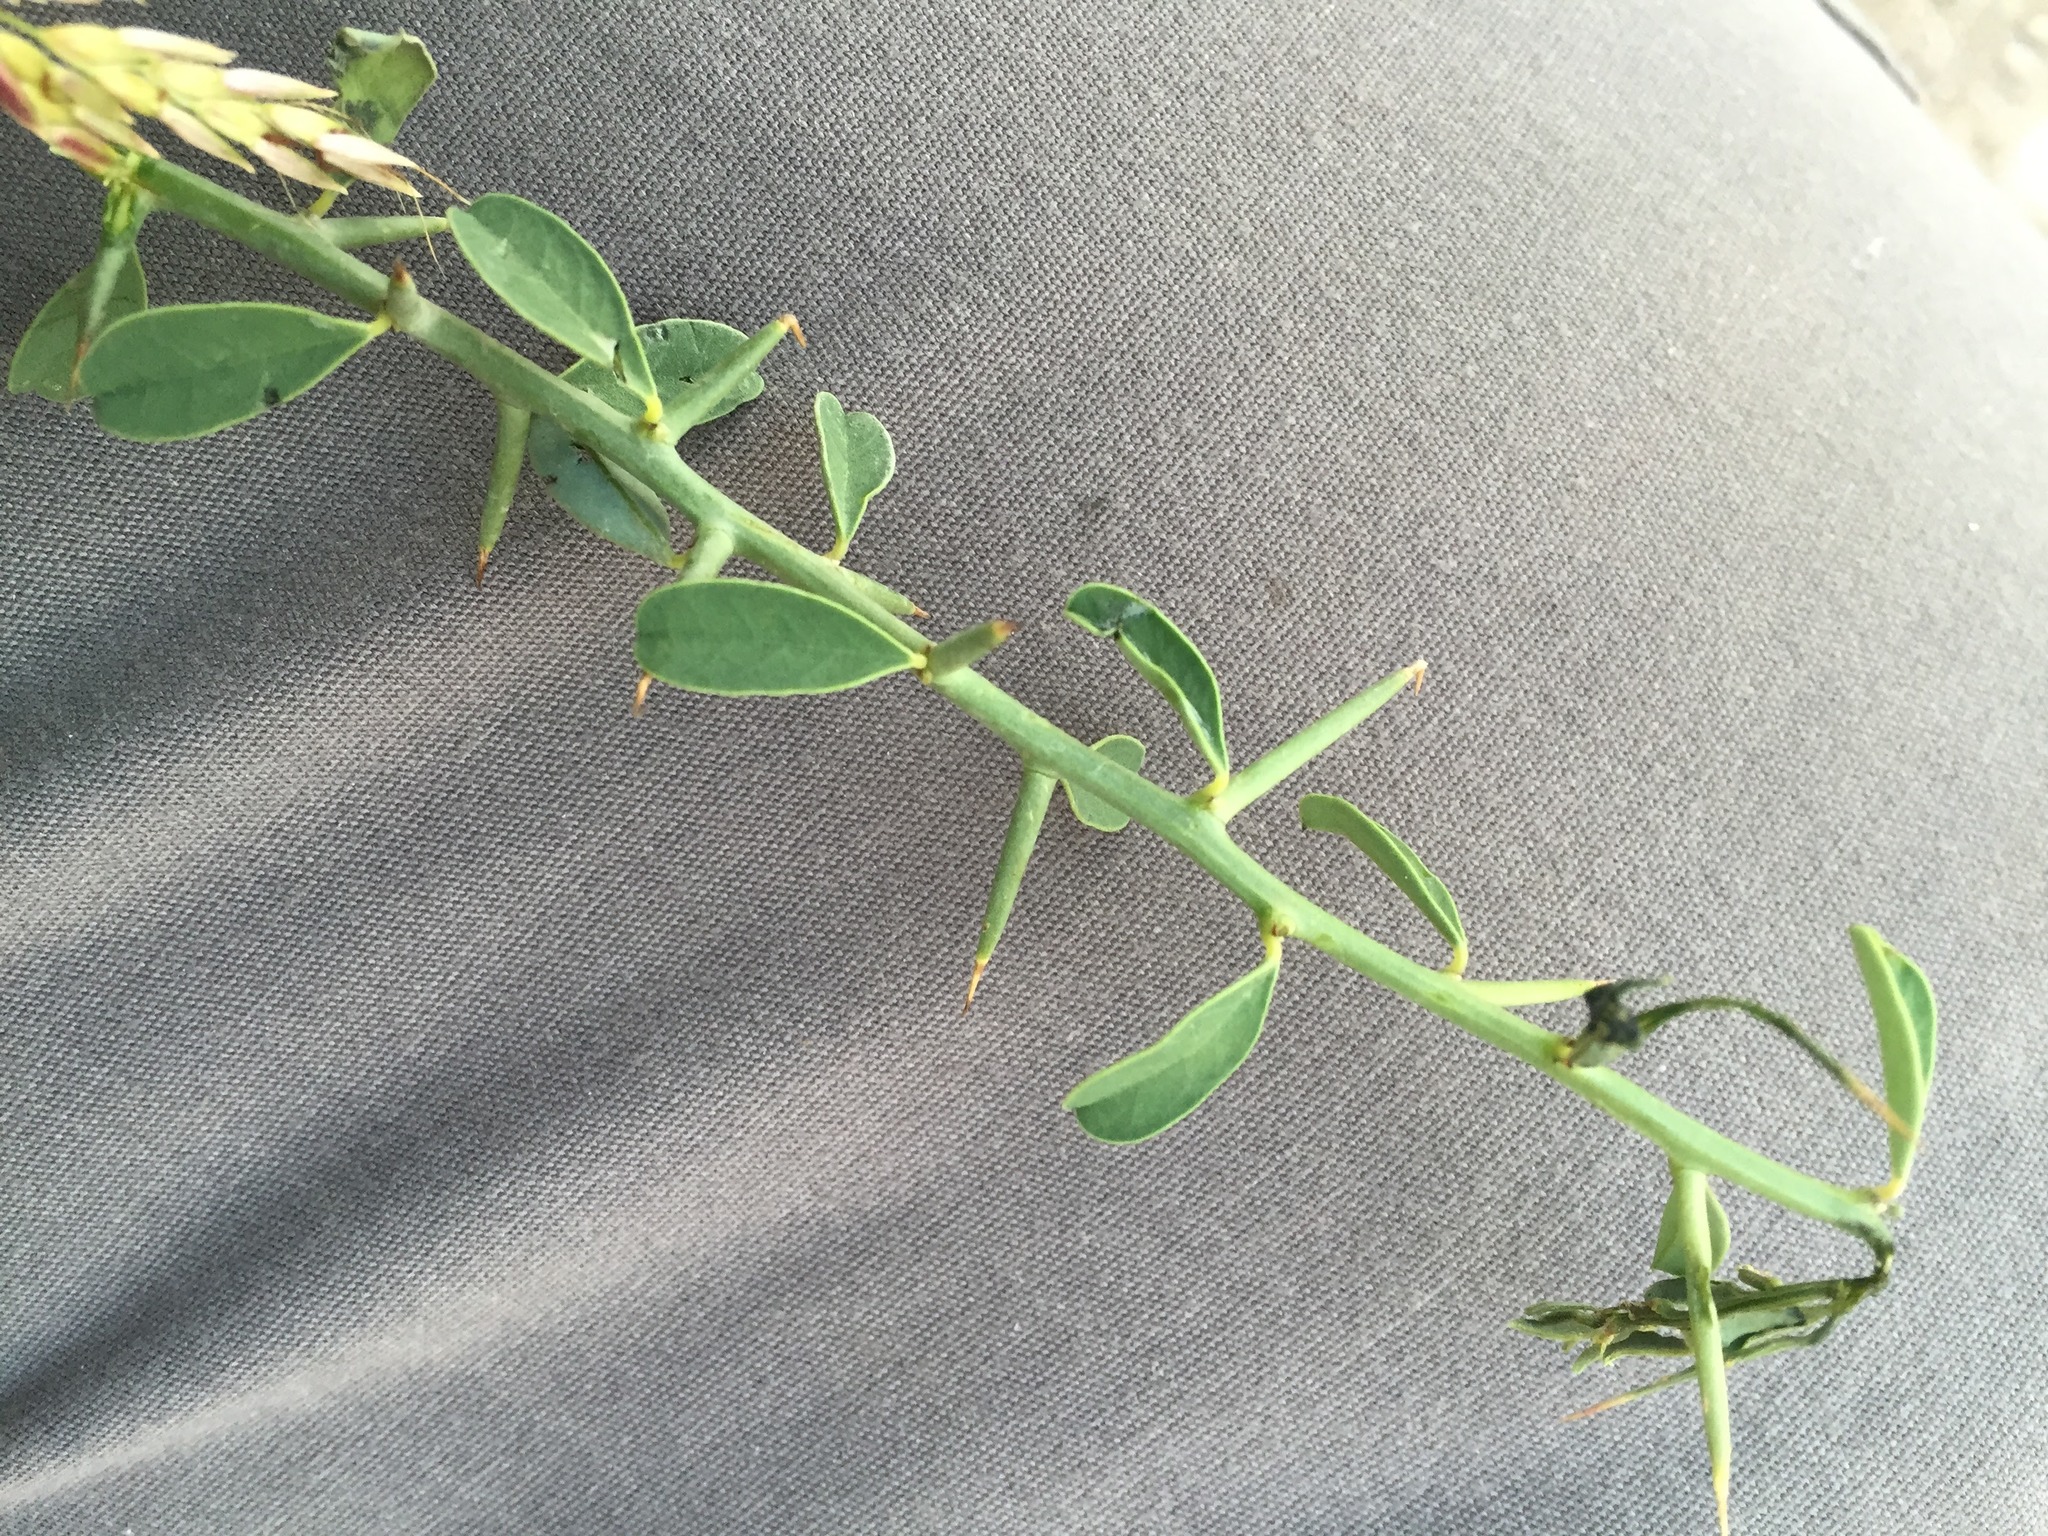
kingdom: Plantae
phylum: Tracheophyta
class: Magnoliopsida
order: Fabales
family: Fabaceae
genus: Alhagi
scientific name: Alhagi maurorum
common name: Camelthorn
